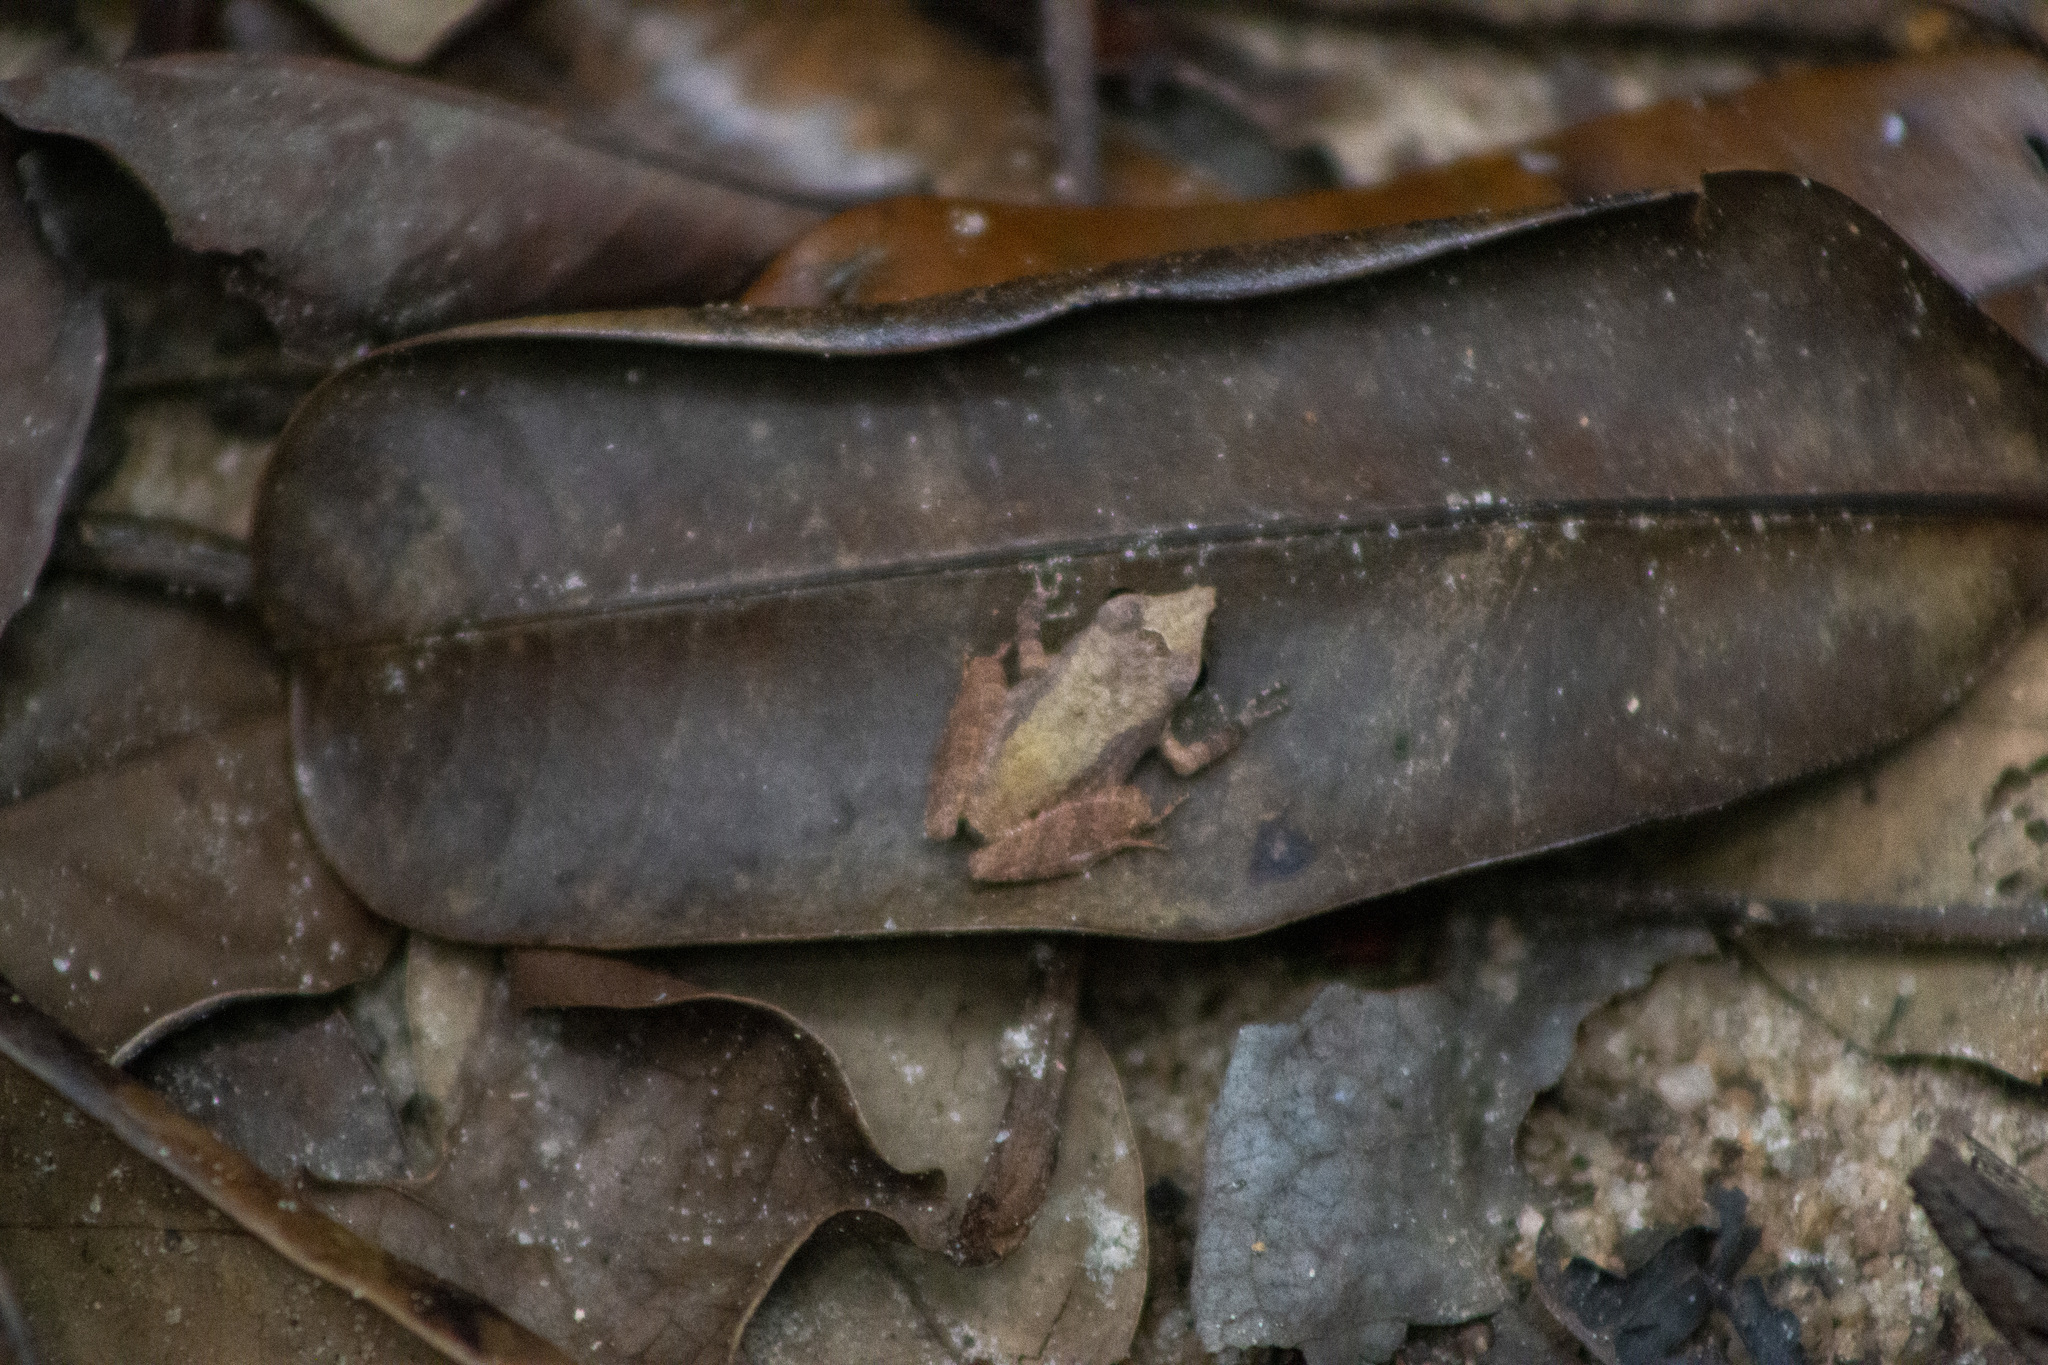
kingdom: Animalia
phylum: Chordata
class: Amphibia
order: Anura
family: Craugastoridae
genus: Pristimantis
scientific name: Pristimantis ramagii
